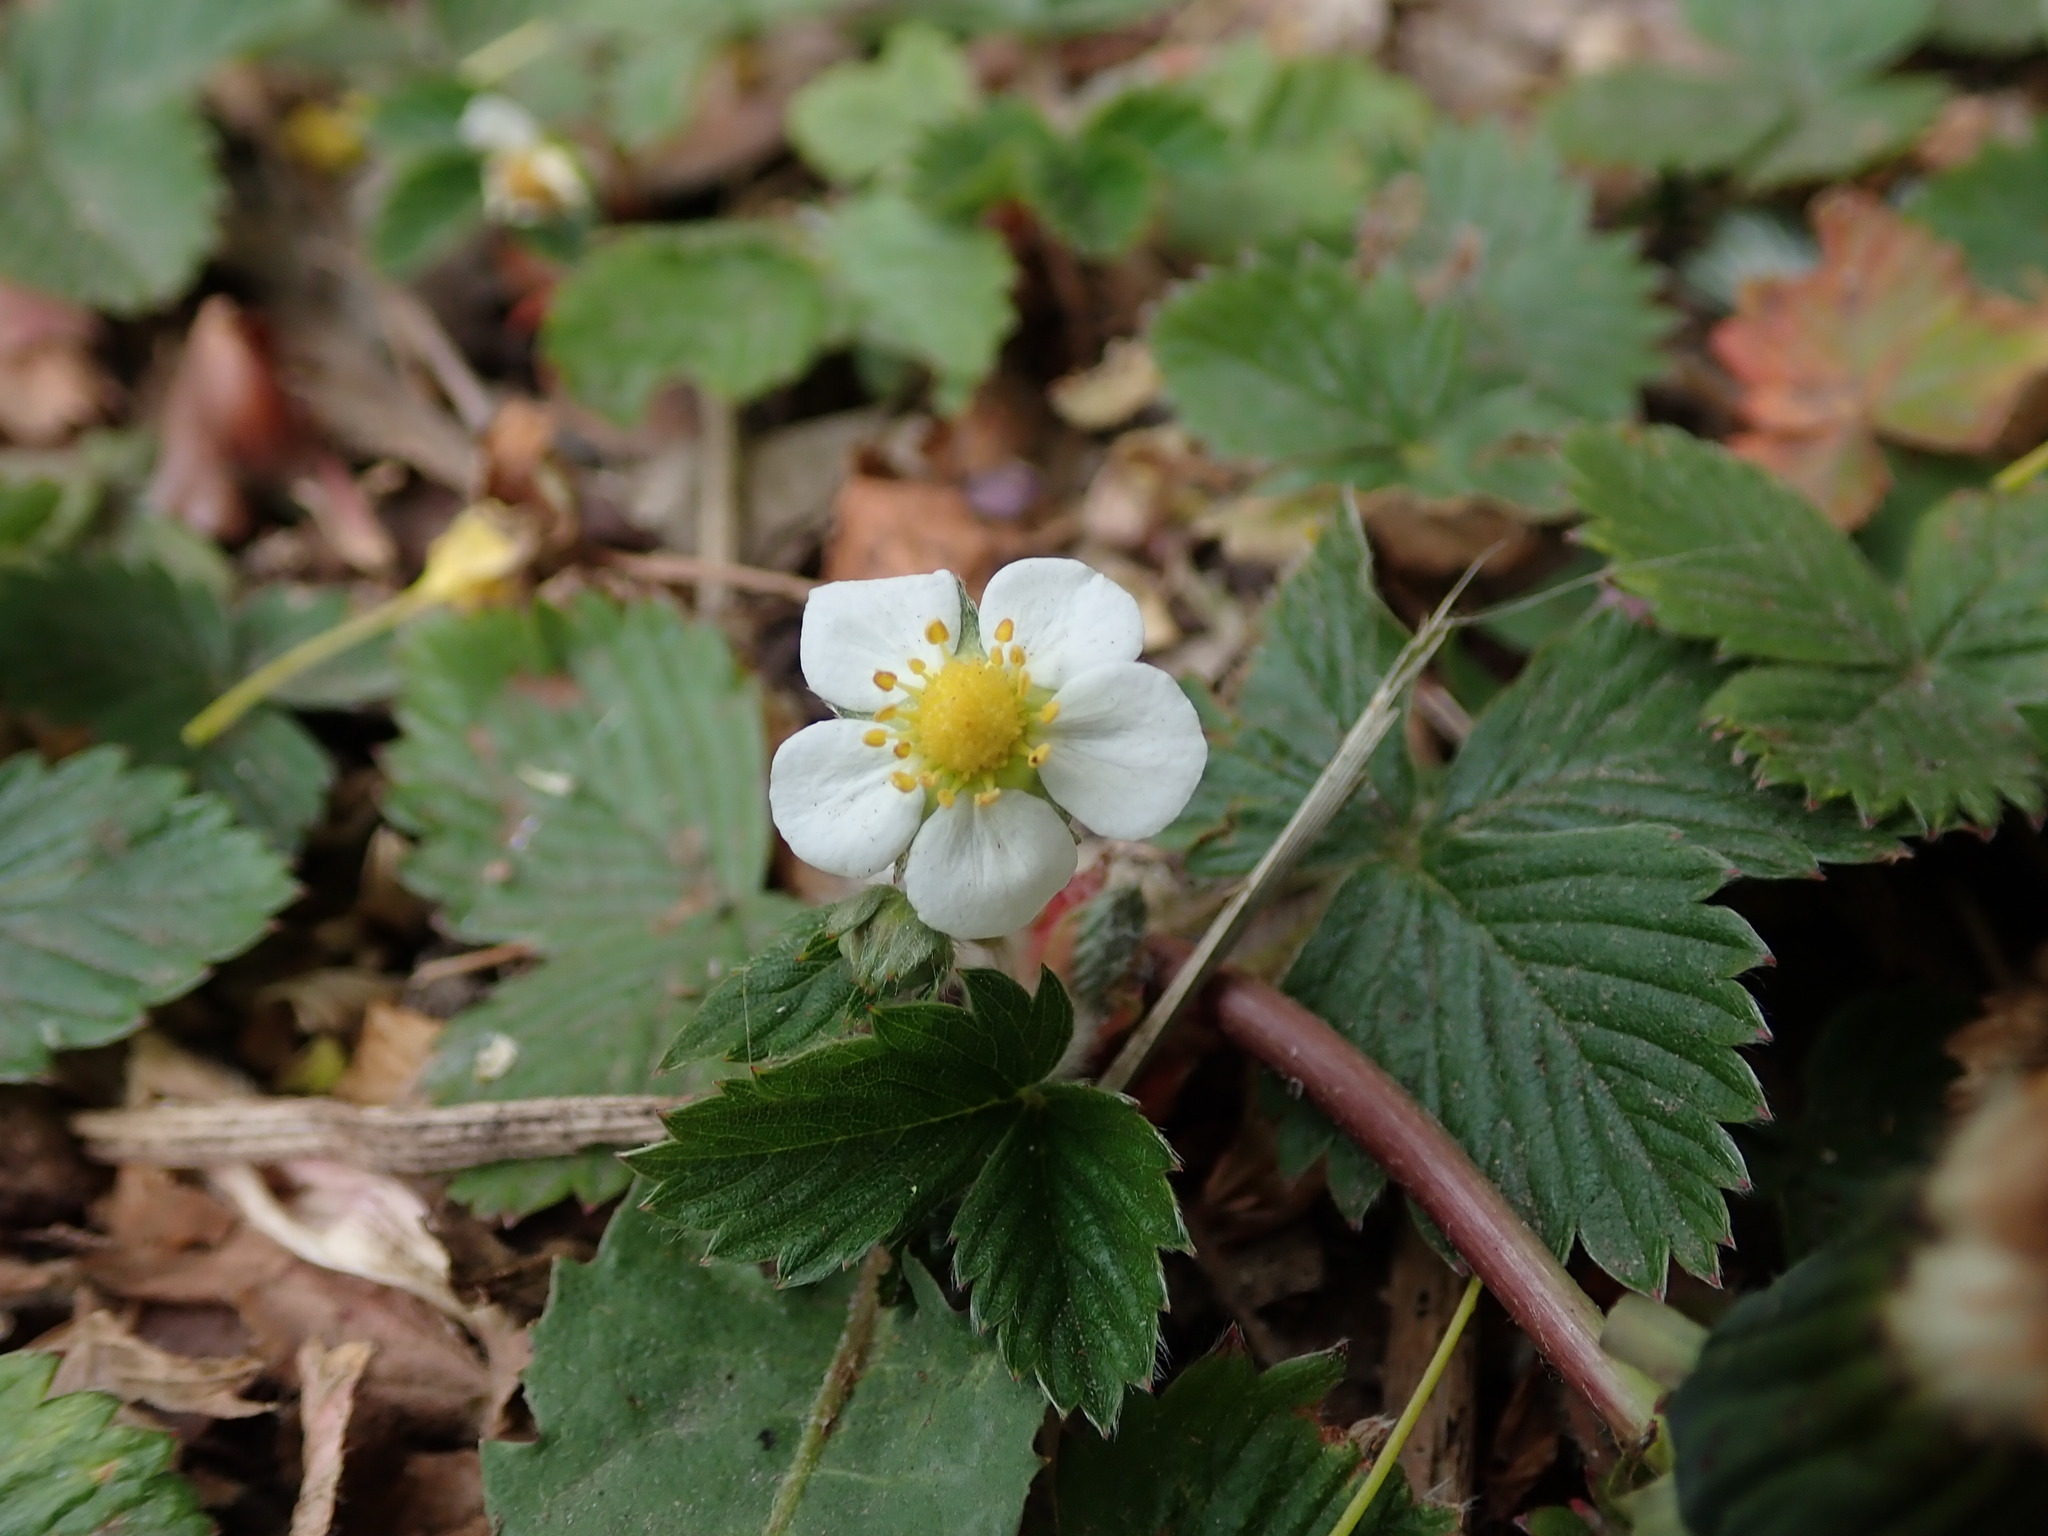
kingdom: Plantae
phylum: Tracheophyta
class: Magnoliopsida
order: Rosales
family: Rosaceae
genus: Fragaria
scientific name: Fragaria vesca
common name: Wild strawberry
